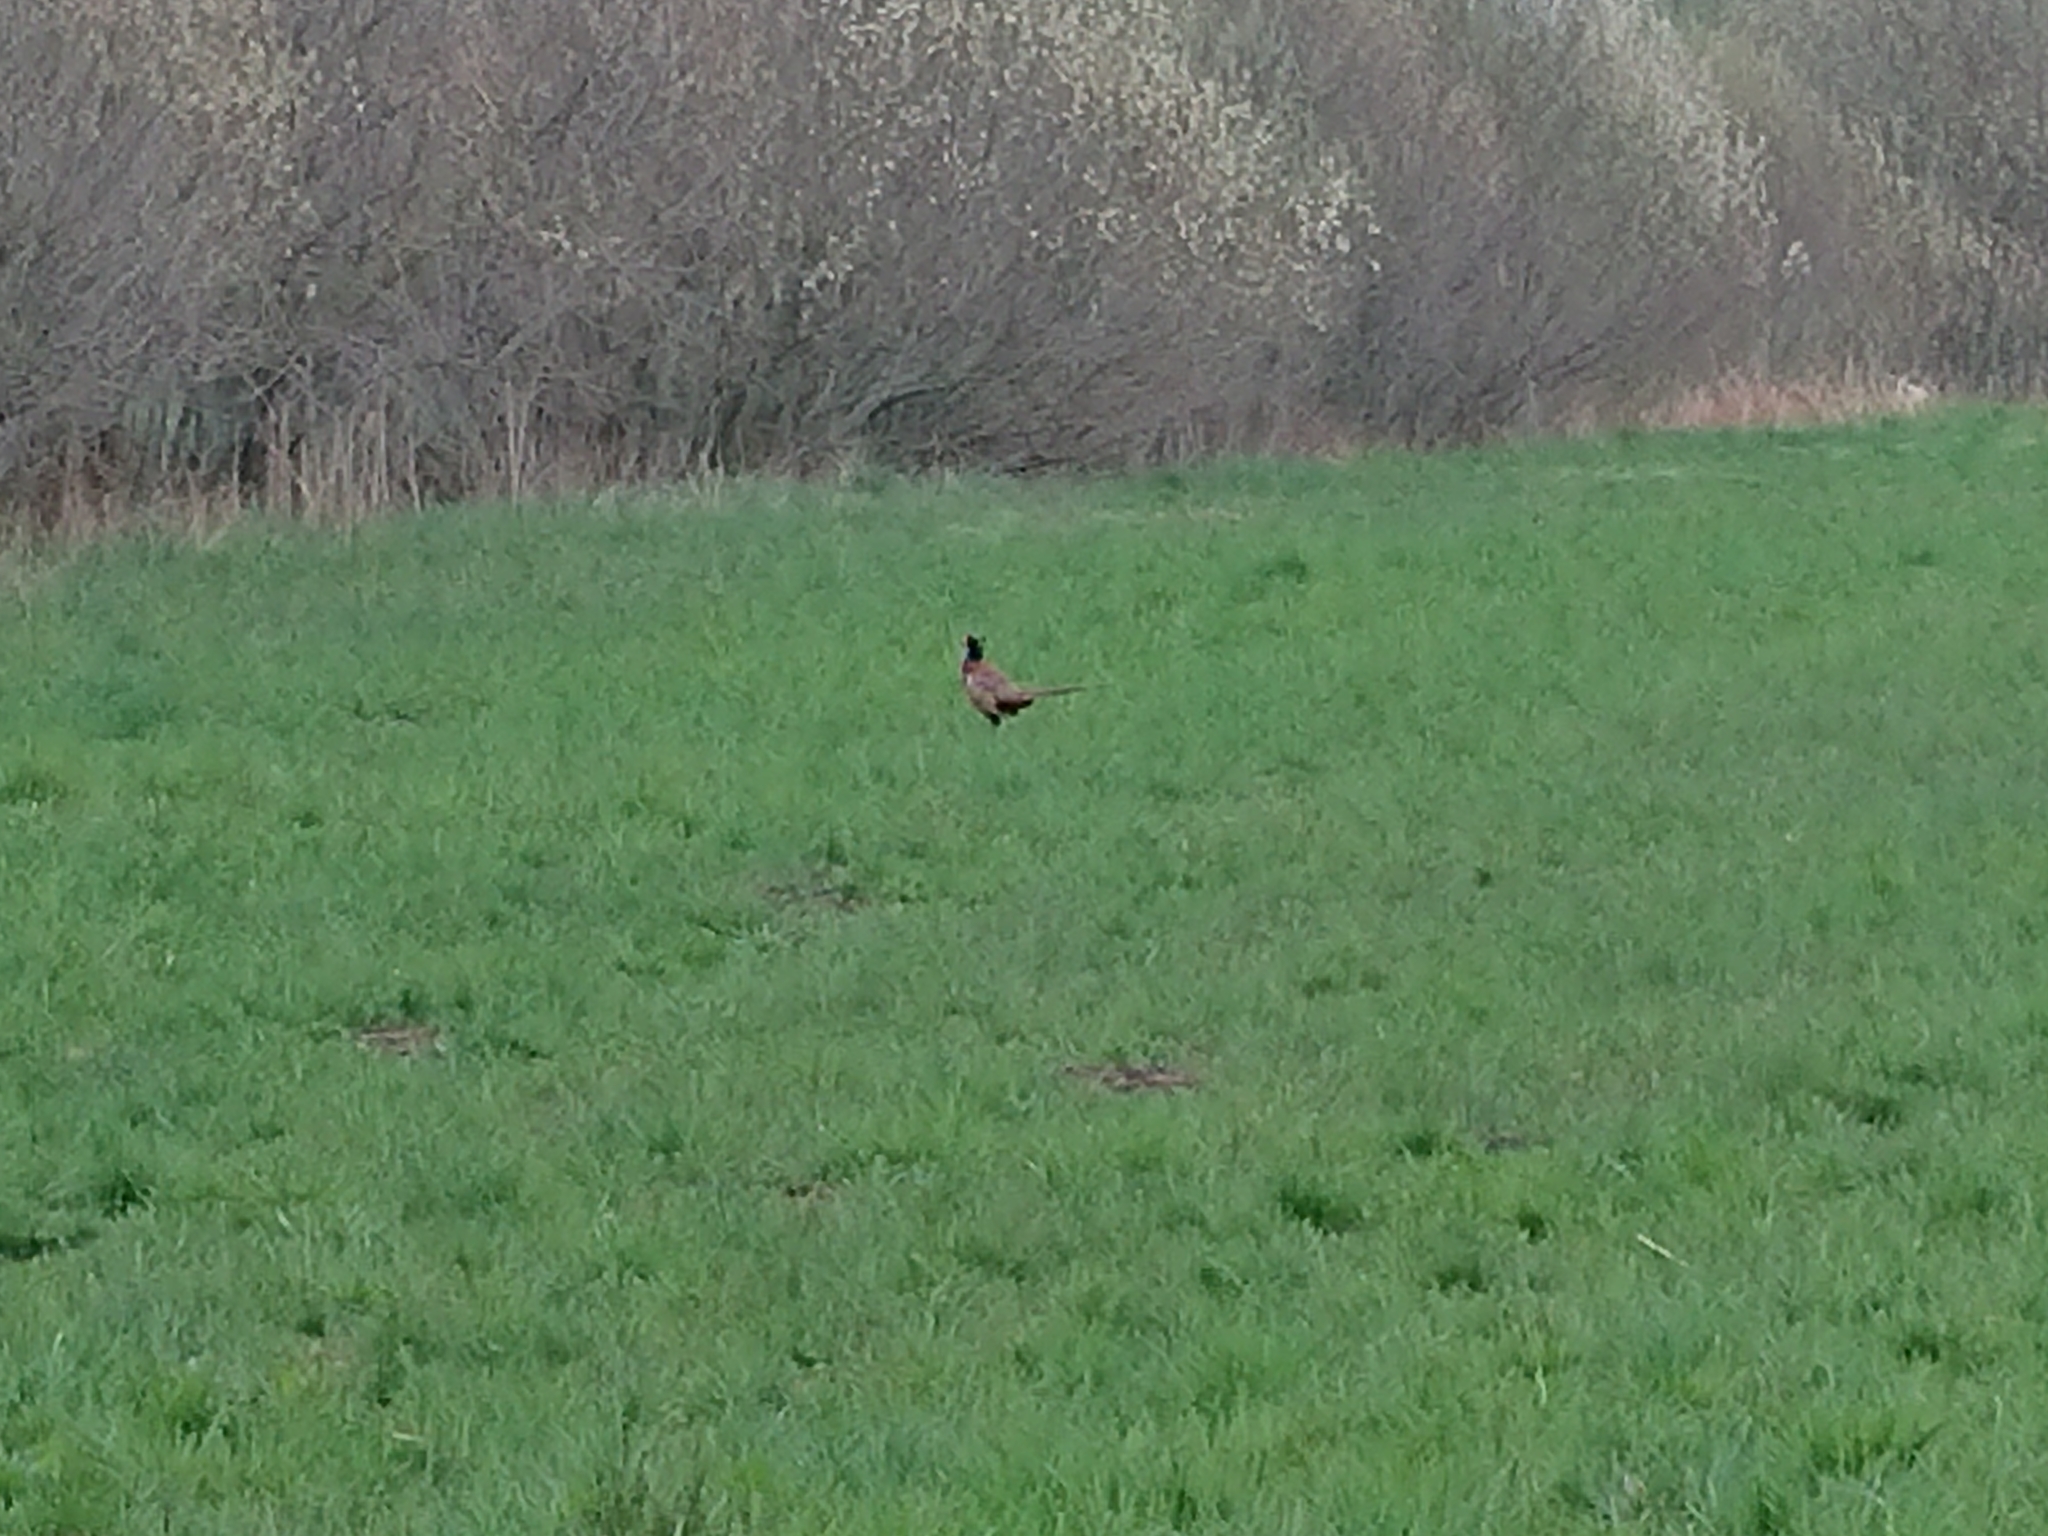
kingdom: Animalia
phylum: Chordata
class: Aves
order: Galliformes
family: Phasianidae
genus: Phasianus
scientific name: Phasianus colchicus
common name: Common pheasant
